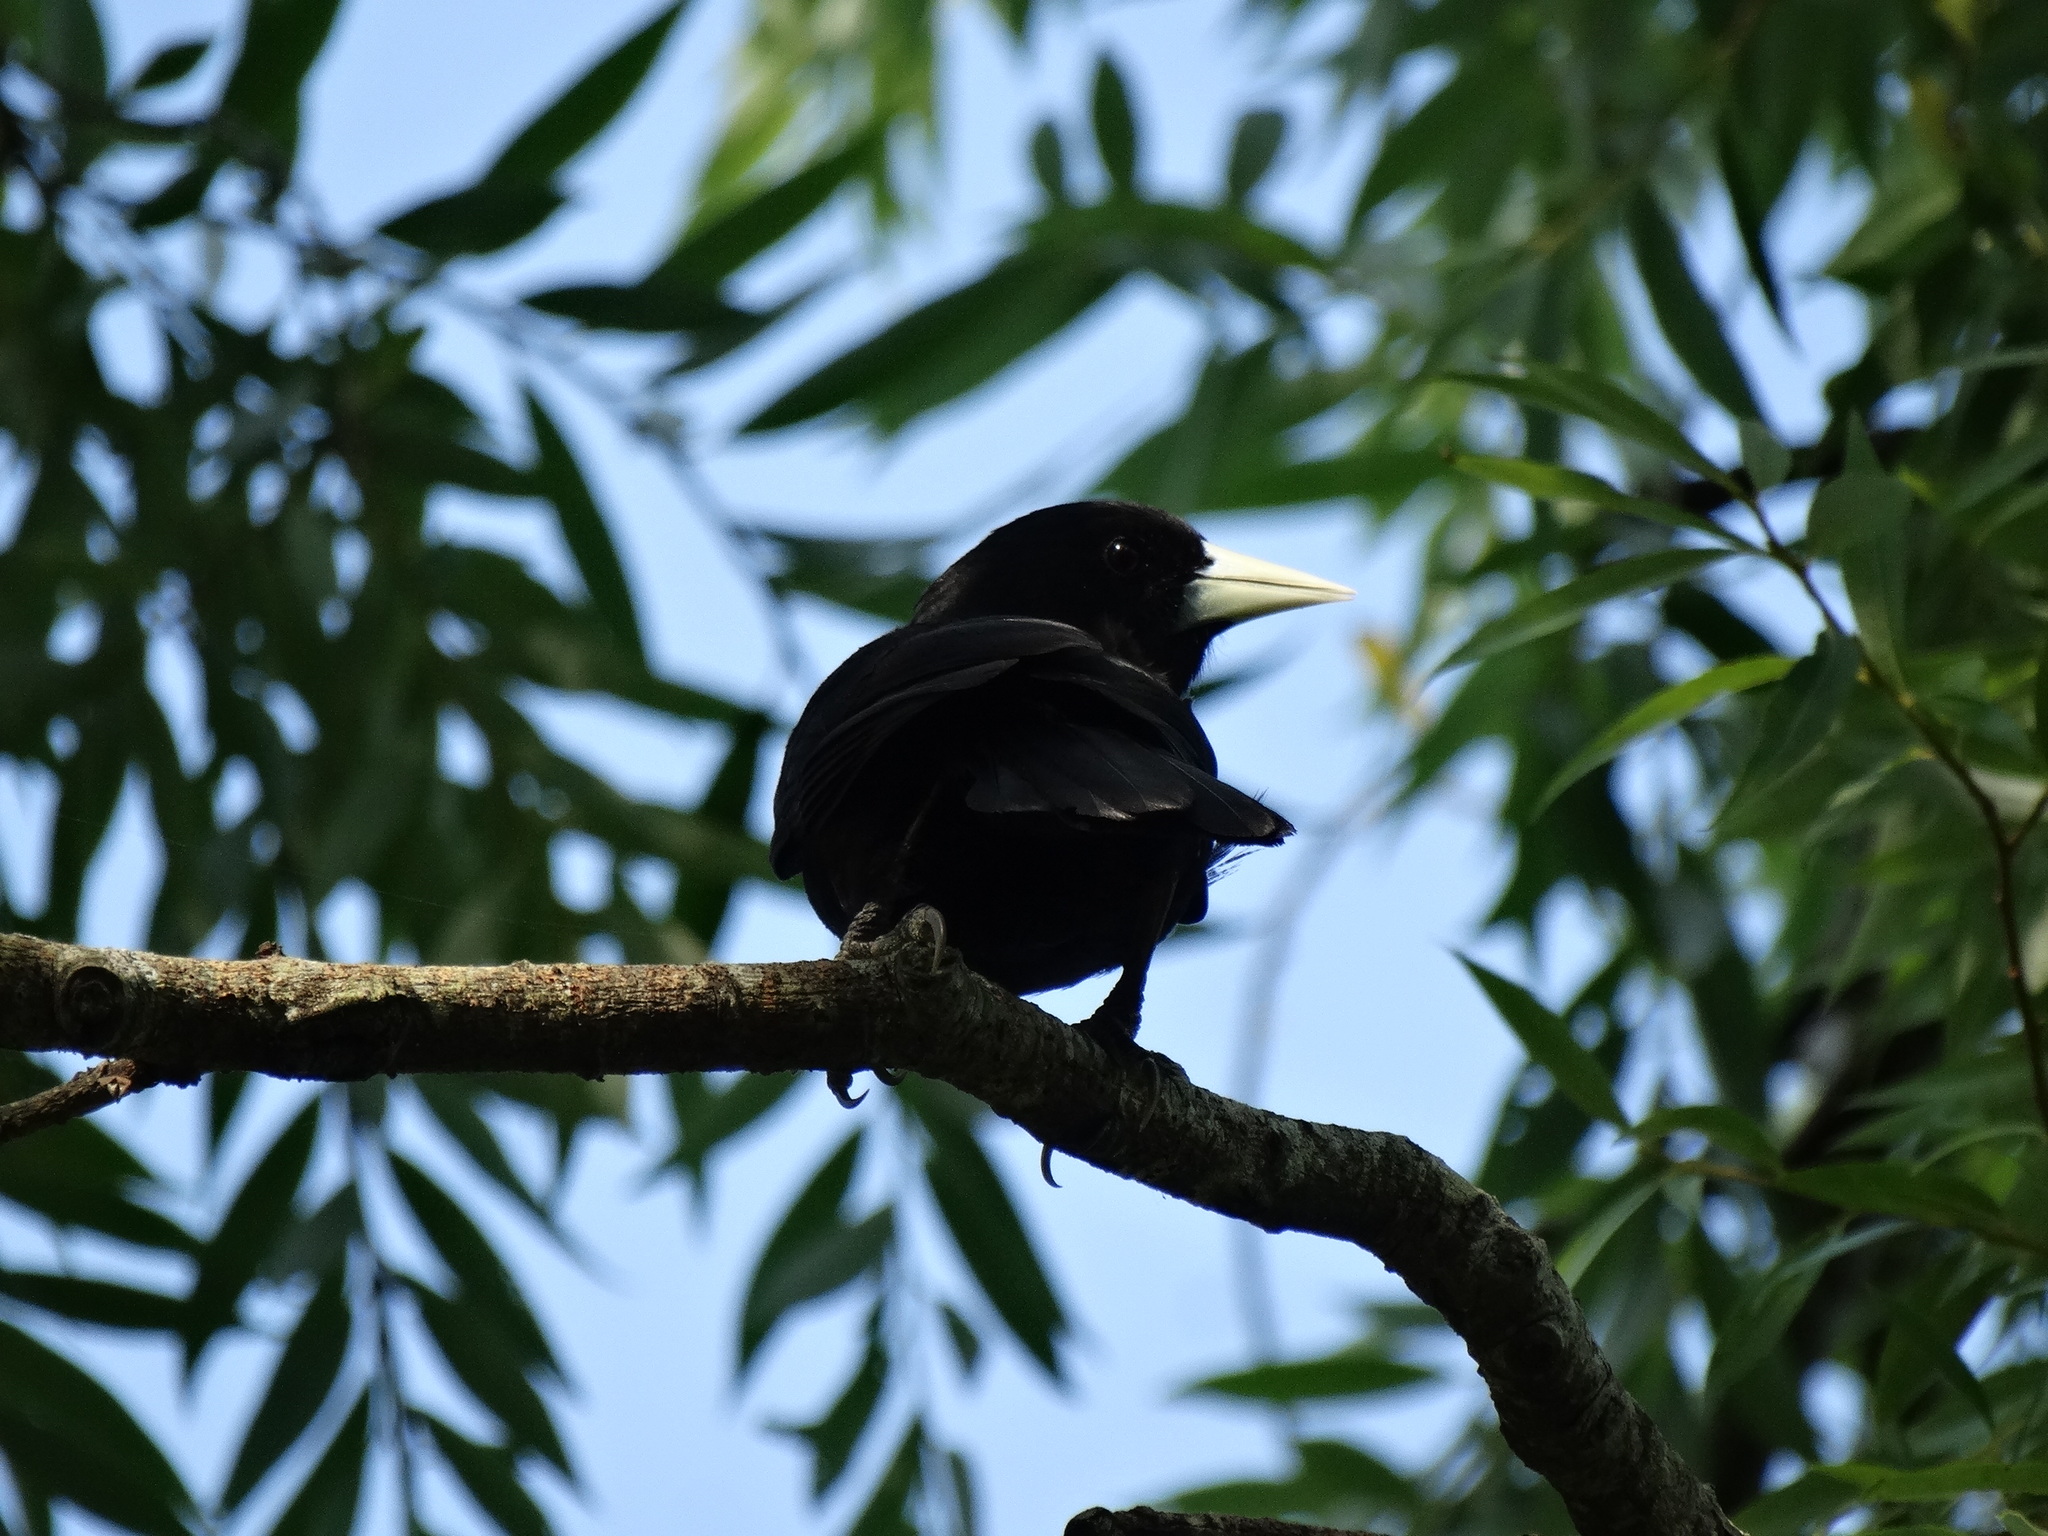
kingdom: Animalia
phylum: Chordata
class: Aves
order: Passeriformes
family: Icteridae
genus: Cacicus
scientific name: Cacicus solitarius
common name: Solitary cacique
